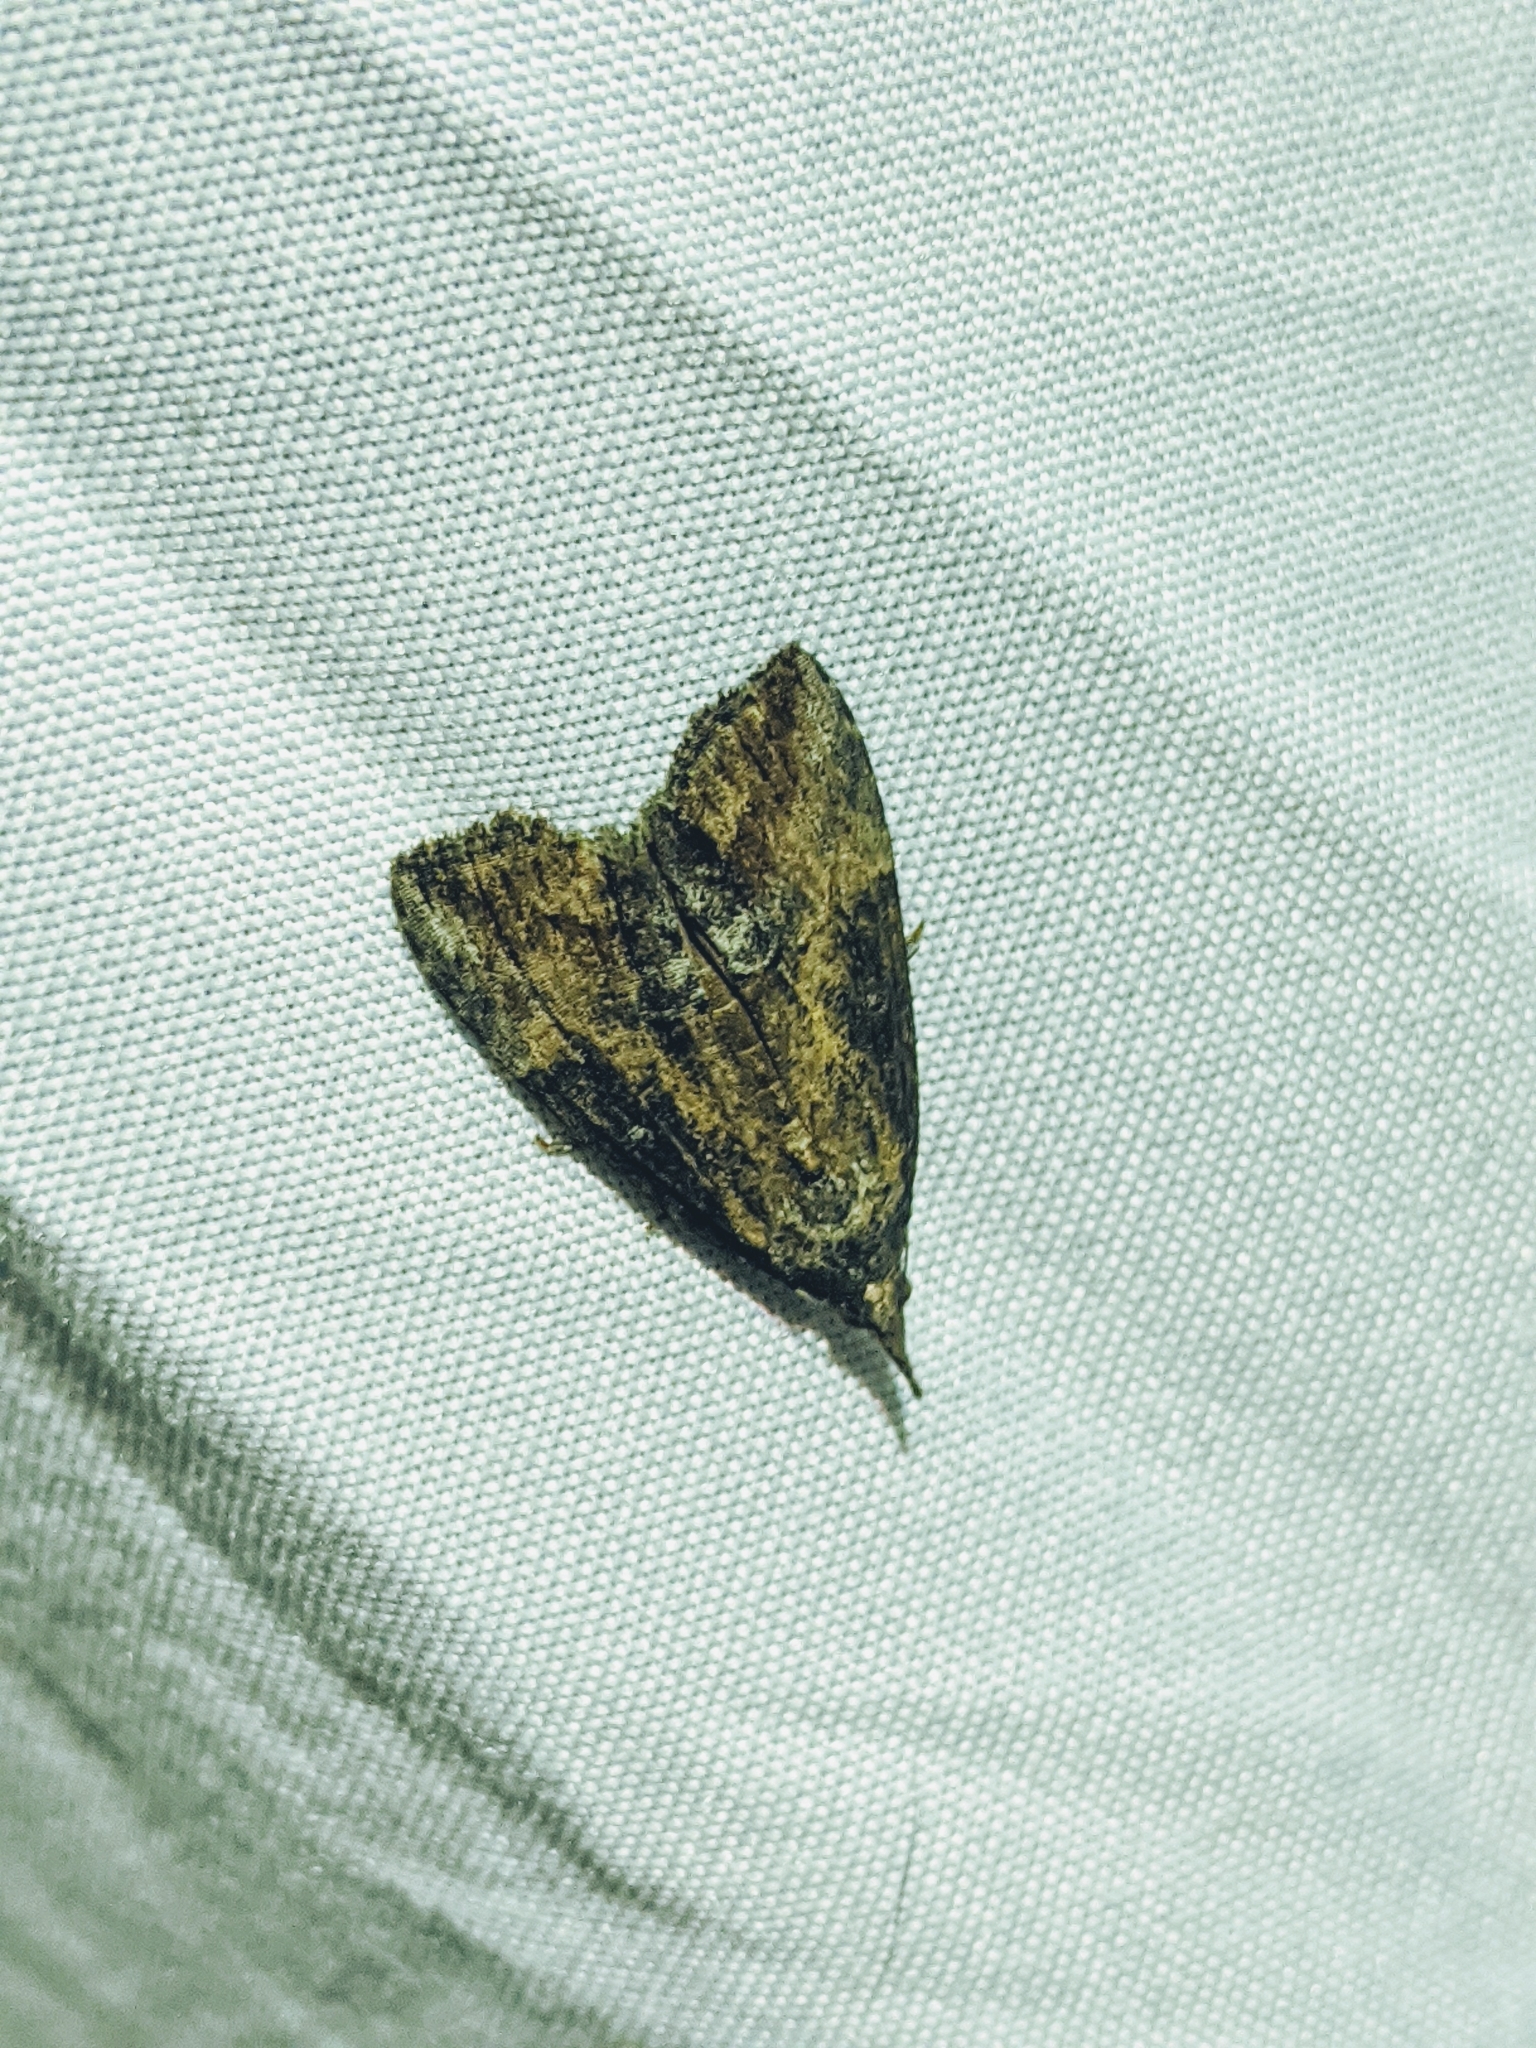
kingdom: Animalia
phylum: Arthropoda
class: Insecta
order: Lepidoptera
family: Erebidae
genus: Hypena
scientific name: Hypena scabra
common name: Green cloverworm
